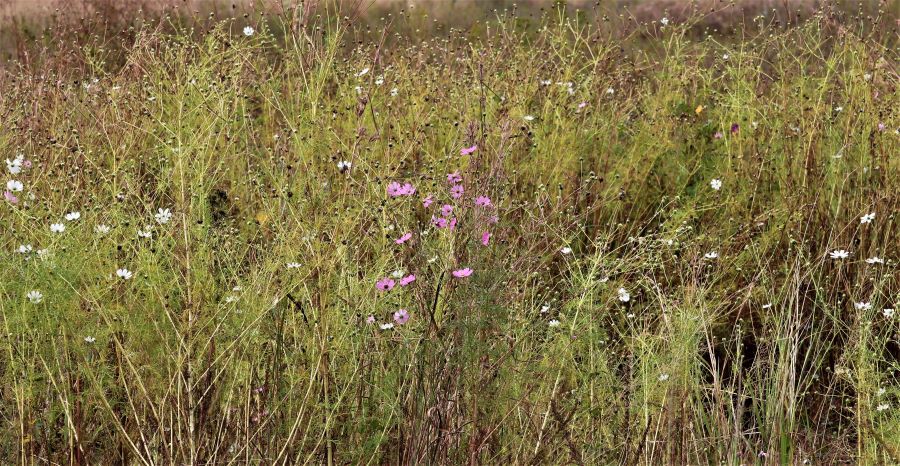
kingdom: Plantae
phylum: Tracheophyta
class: Magnoliopsida
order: Asterales
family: Asteraceae
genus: Cosmos
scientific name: Cosmos bipinnatus
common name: Garden cosmos
